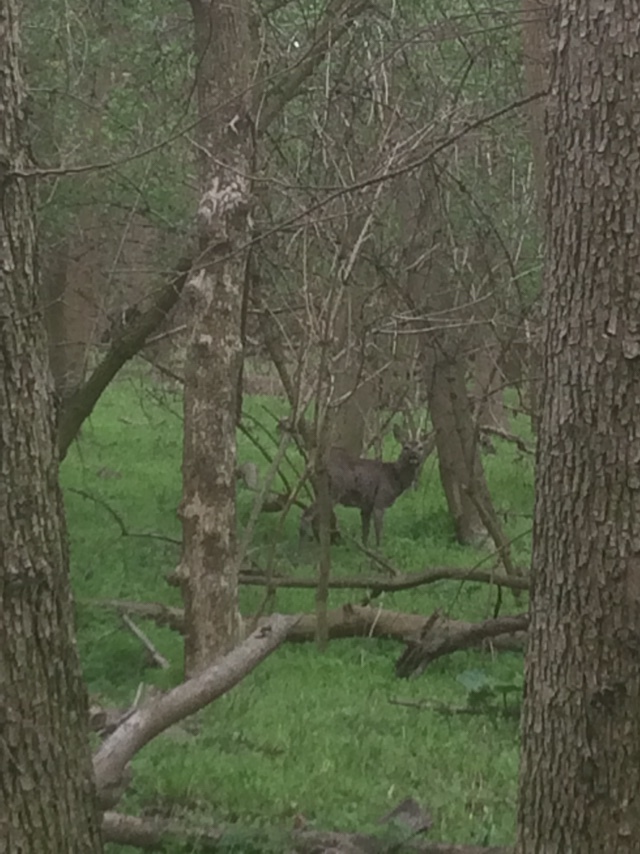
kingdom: Animalia
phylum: Chordata
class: Mammalia
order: Artiodactyla
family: Cervidae
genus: Capreolus
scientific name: Capreolus capreolus
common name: Western roe deer
